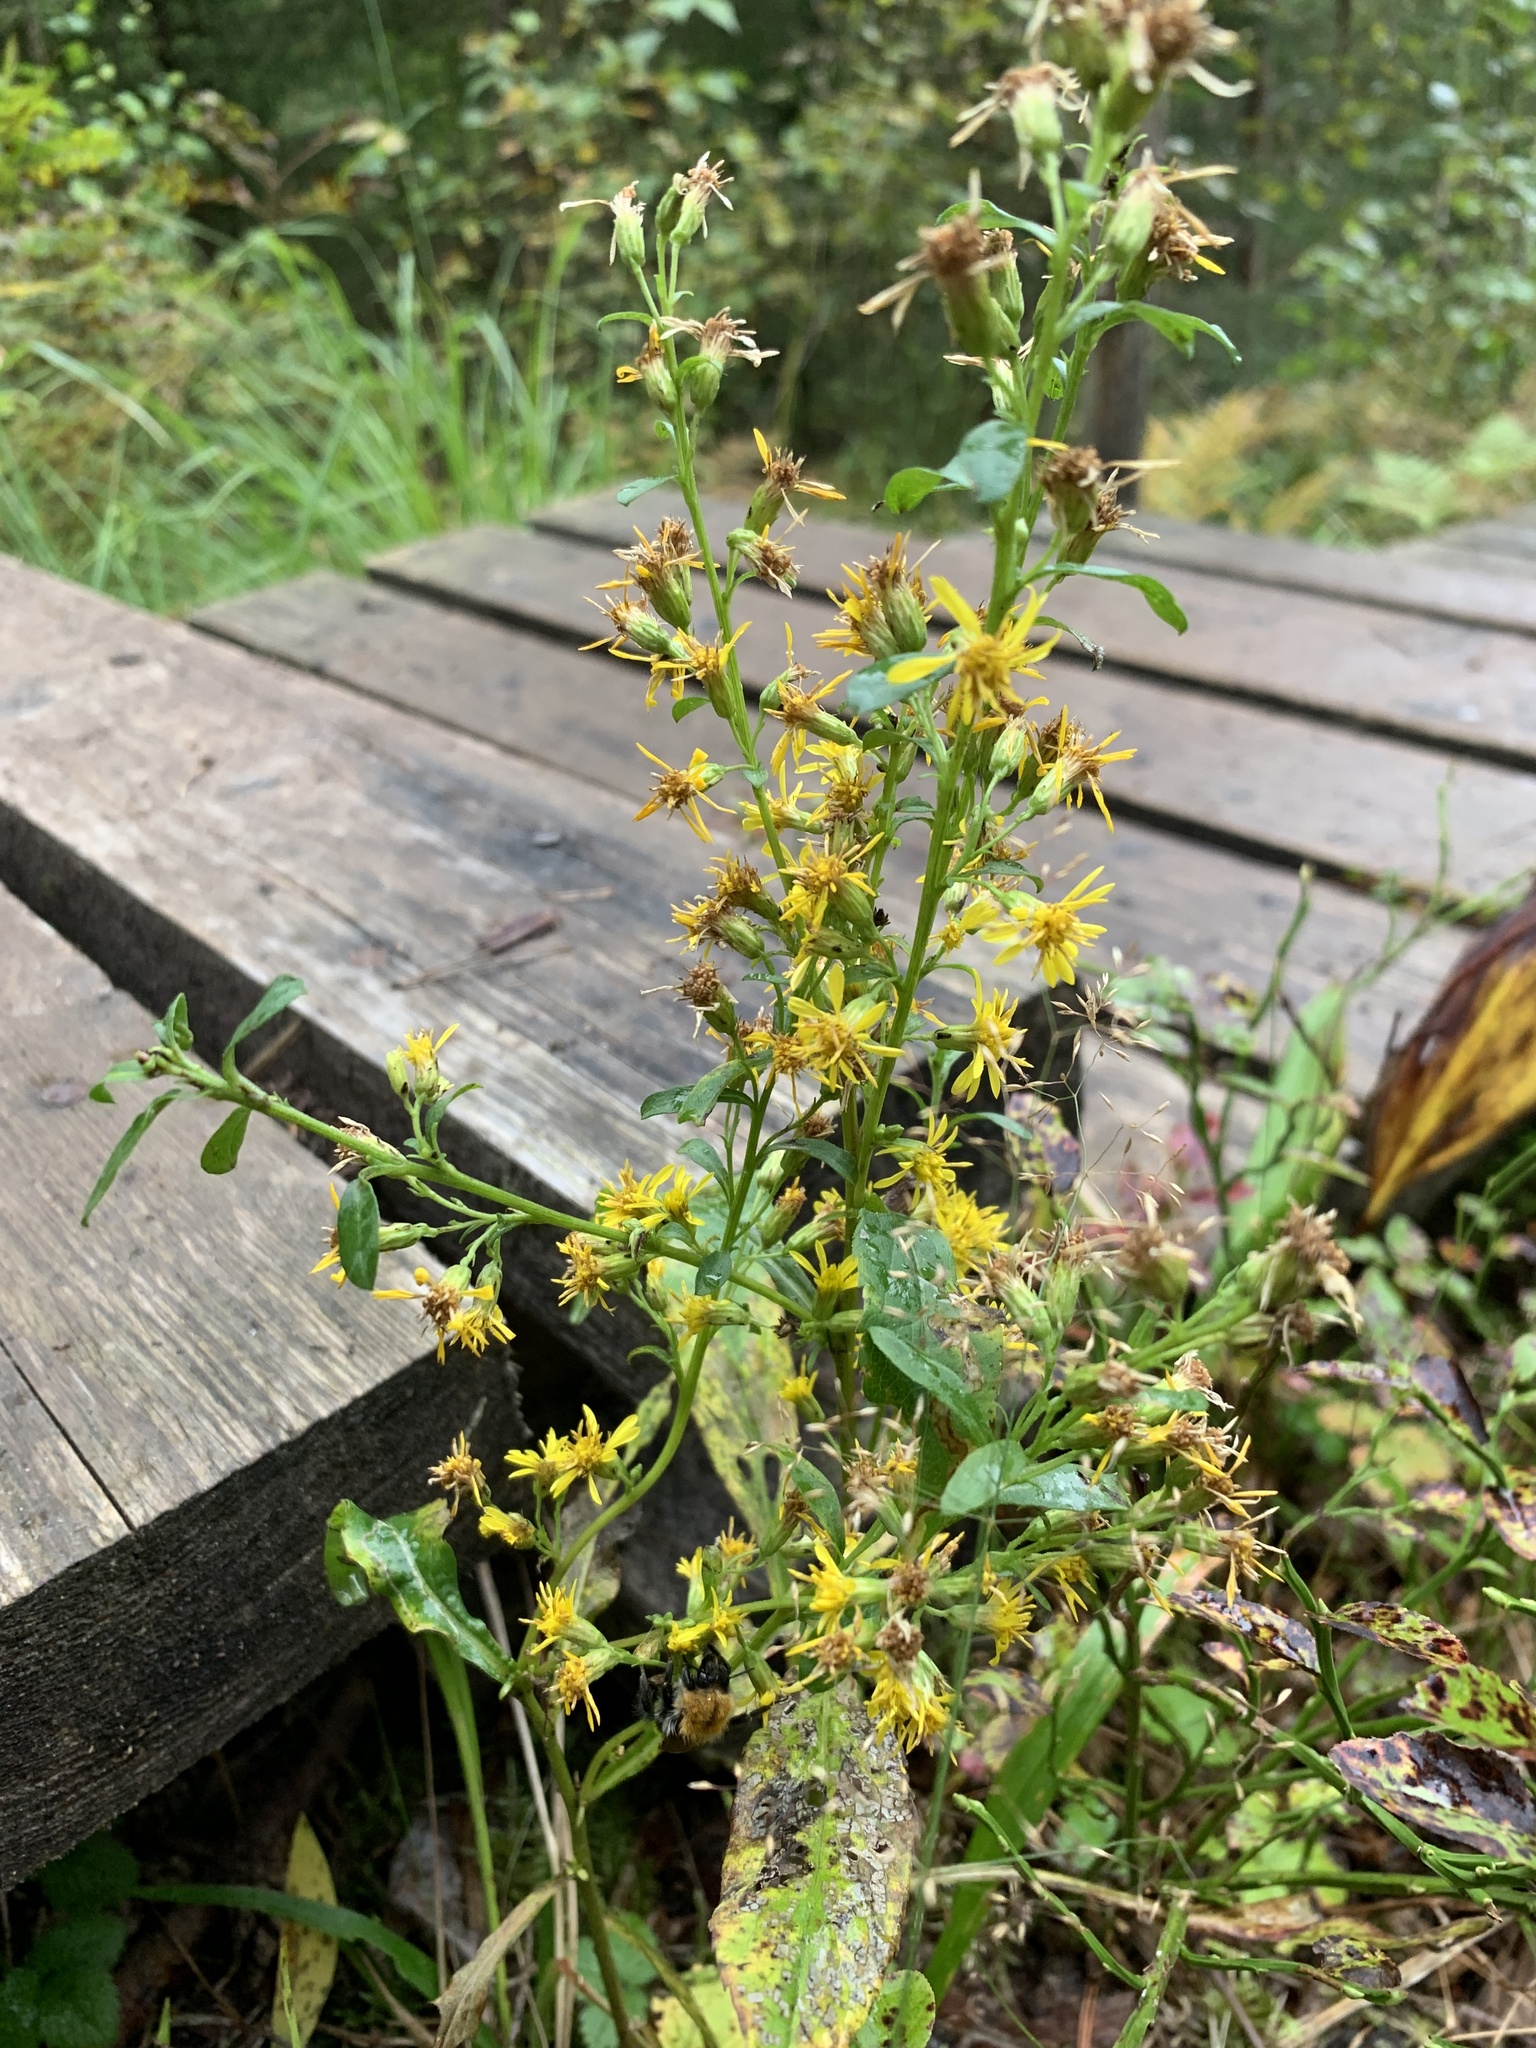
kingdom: Plantae
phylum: Tracheophyta
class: Magnoliopsida
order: Asterales
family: Asteraceae
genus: Solidago
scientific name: Solidago virgaurea
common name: Goldenrod
